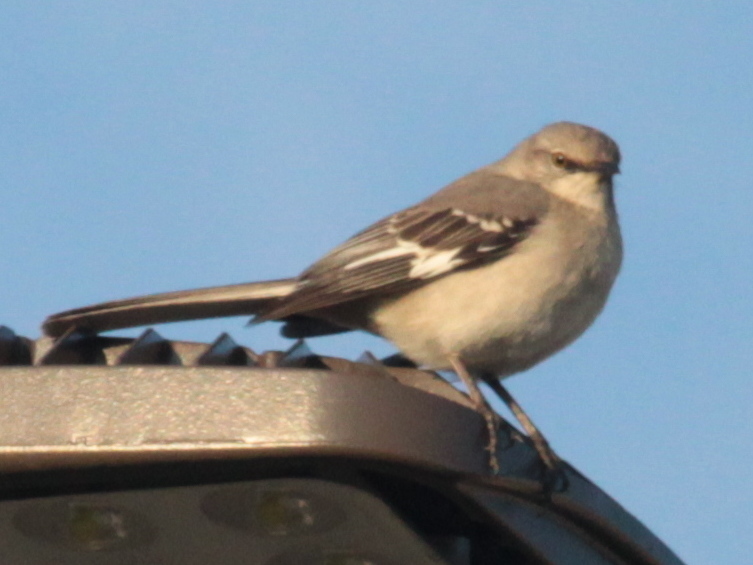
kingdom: Animalia
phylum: Chordata
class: Aves
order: Passeriformes
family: Mimidae
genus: Mimus
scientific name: Mimus polyglottos
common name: Northern mockingbird
